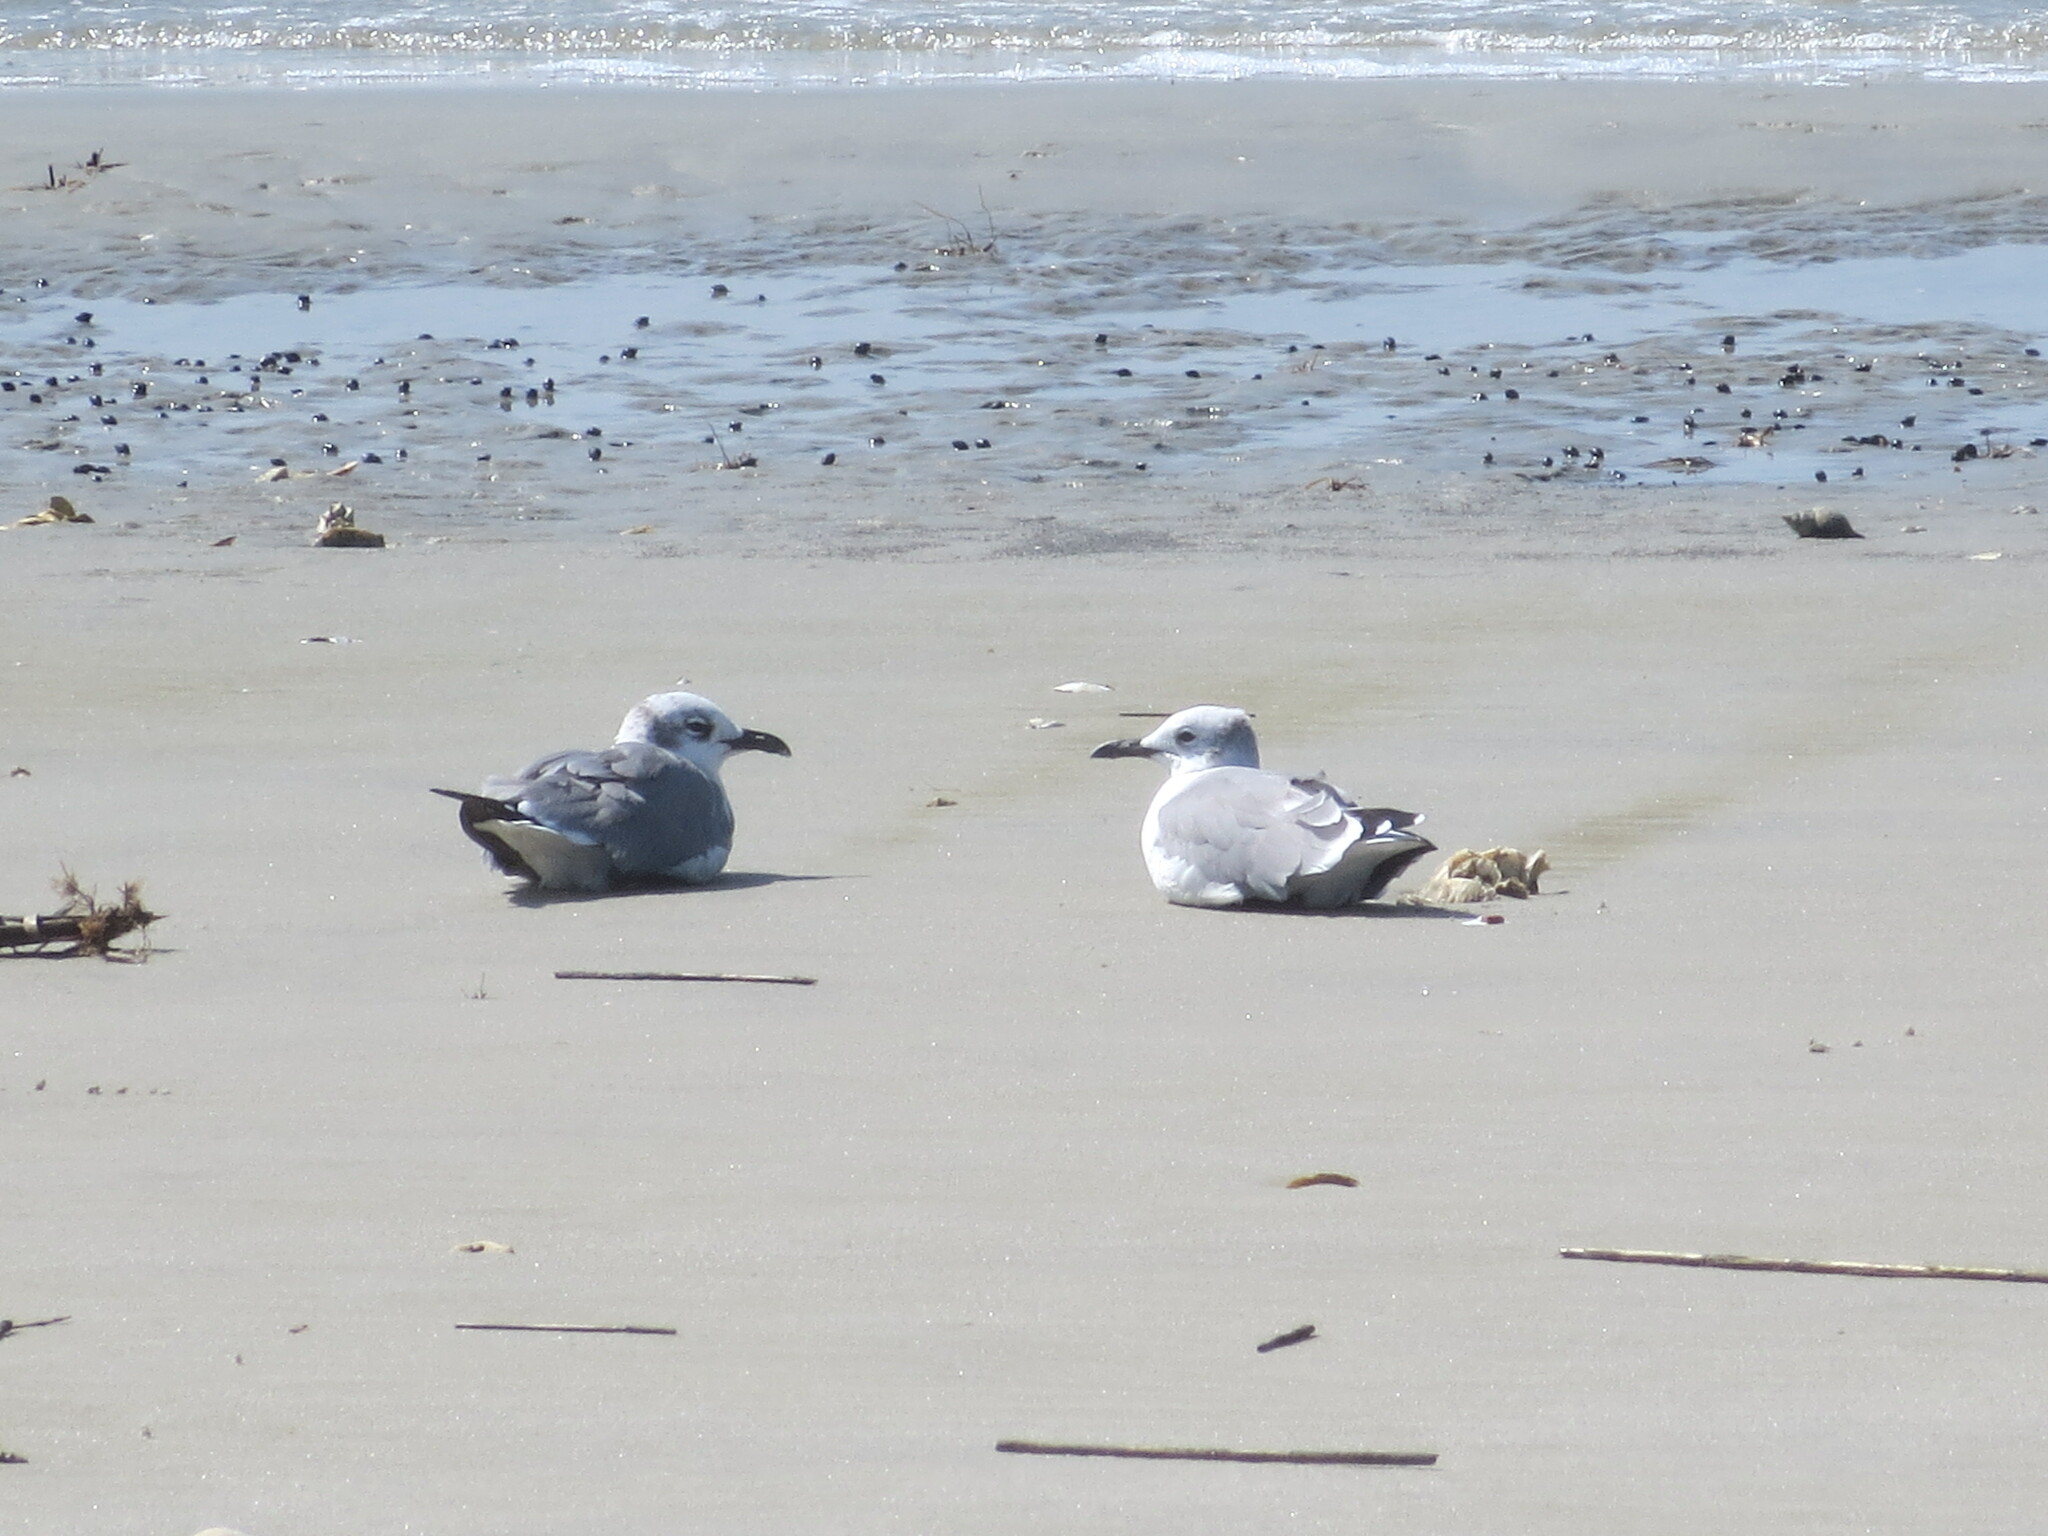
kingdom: Animalia
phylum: Chordata
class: Aves
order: Charadriiformes
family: Laridae
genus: Leucophaeus
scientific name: Leucophaeus atricilla
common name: Laughing gull
